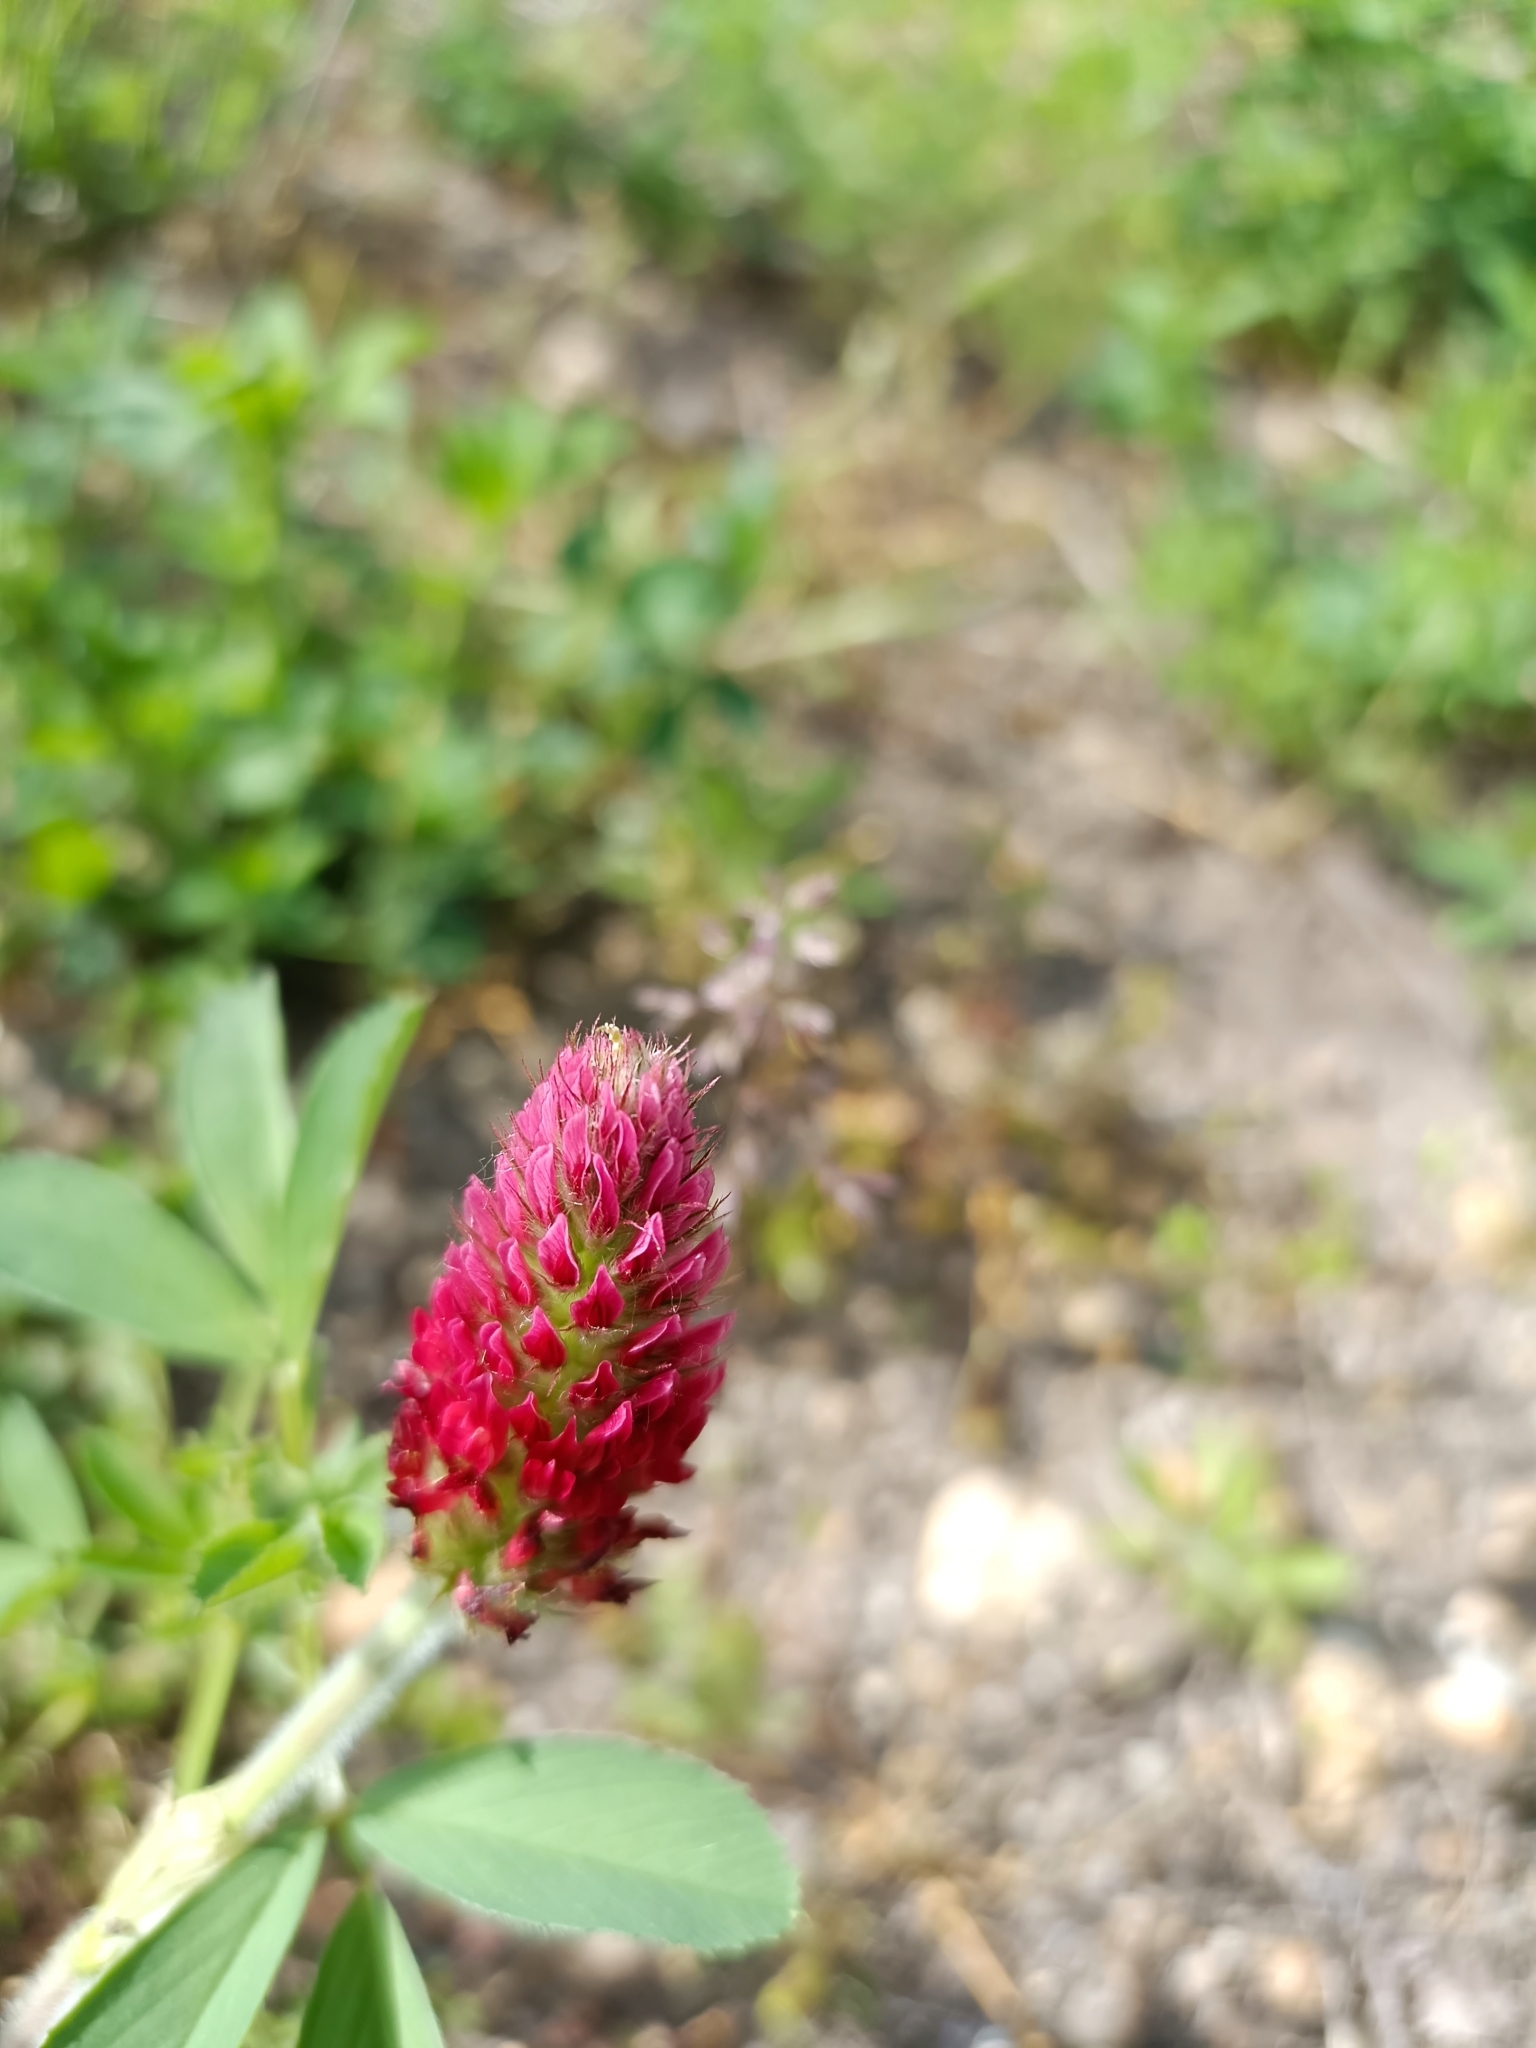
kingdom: Plantae
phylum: Tracheophyta
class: Magnoliopsida
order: Fabales
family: Fabaceae
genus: Trifolium
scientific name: Trifolium incarnatum
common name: Crimson clover
